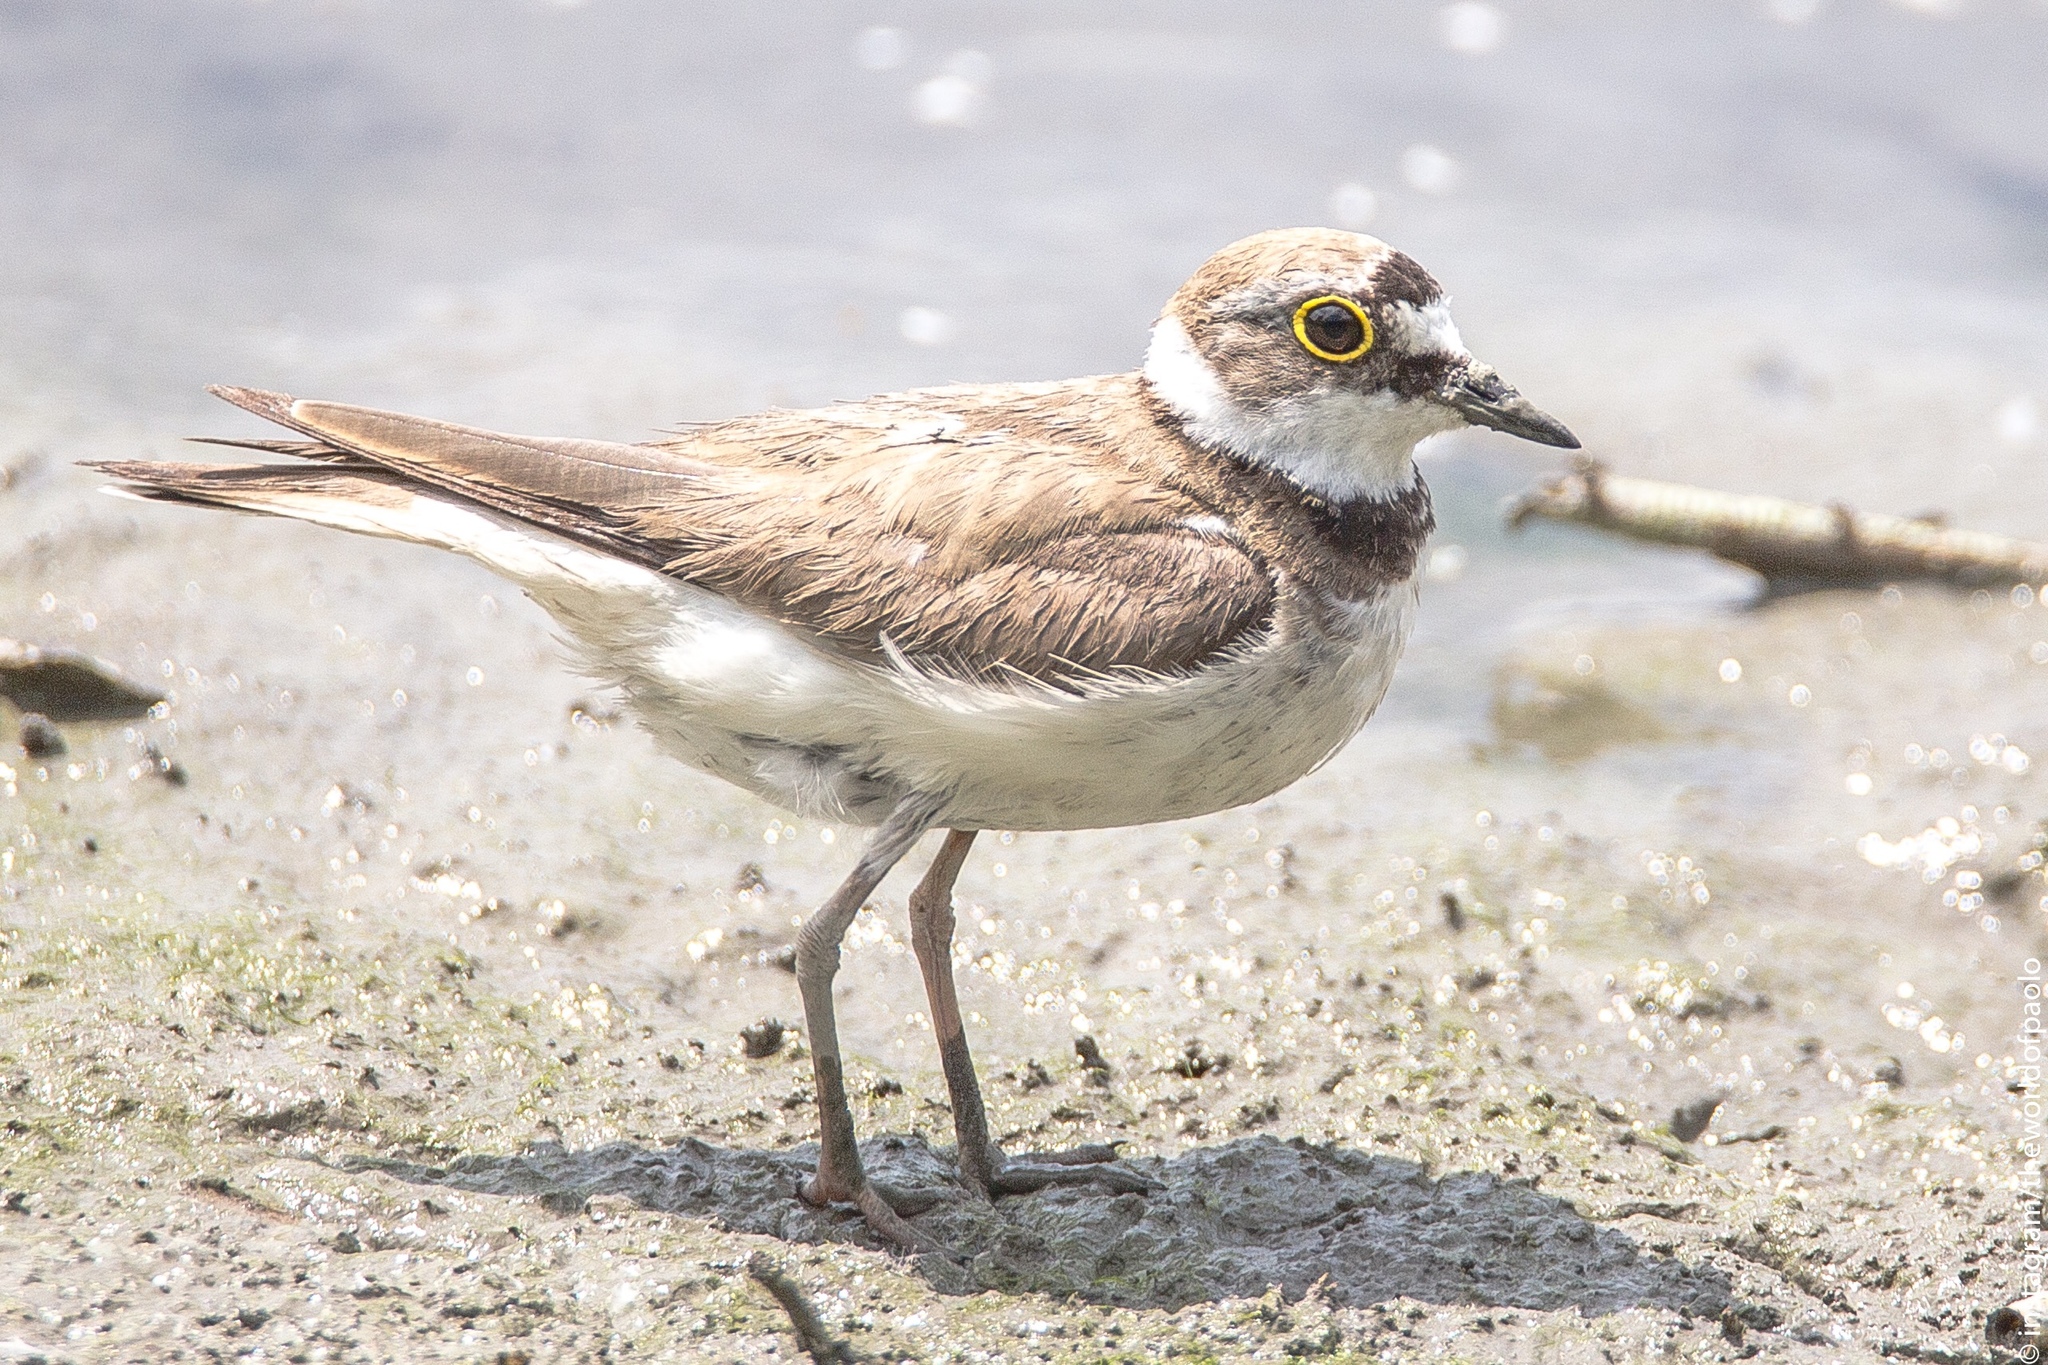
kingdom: Animalia
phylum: Chordata
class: Aves
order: Charadriiformes
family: Charadriidae
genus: Charadrius
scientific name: Charadrius dubius
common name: Little ringed plover
